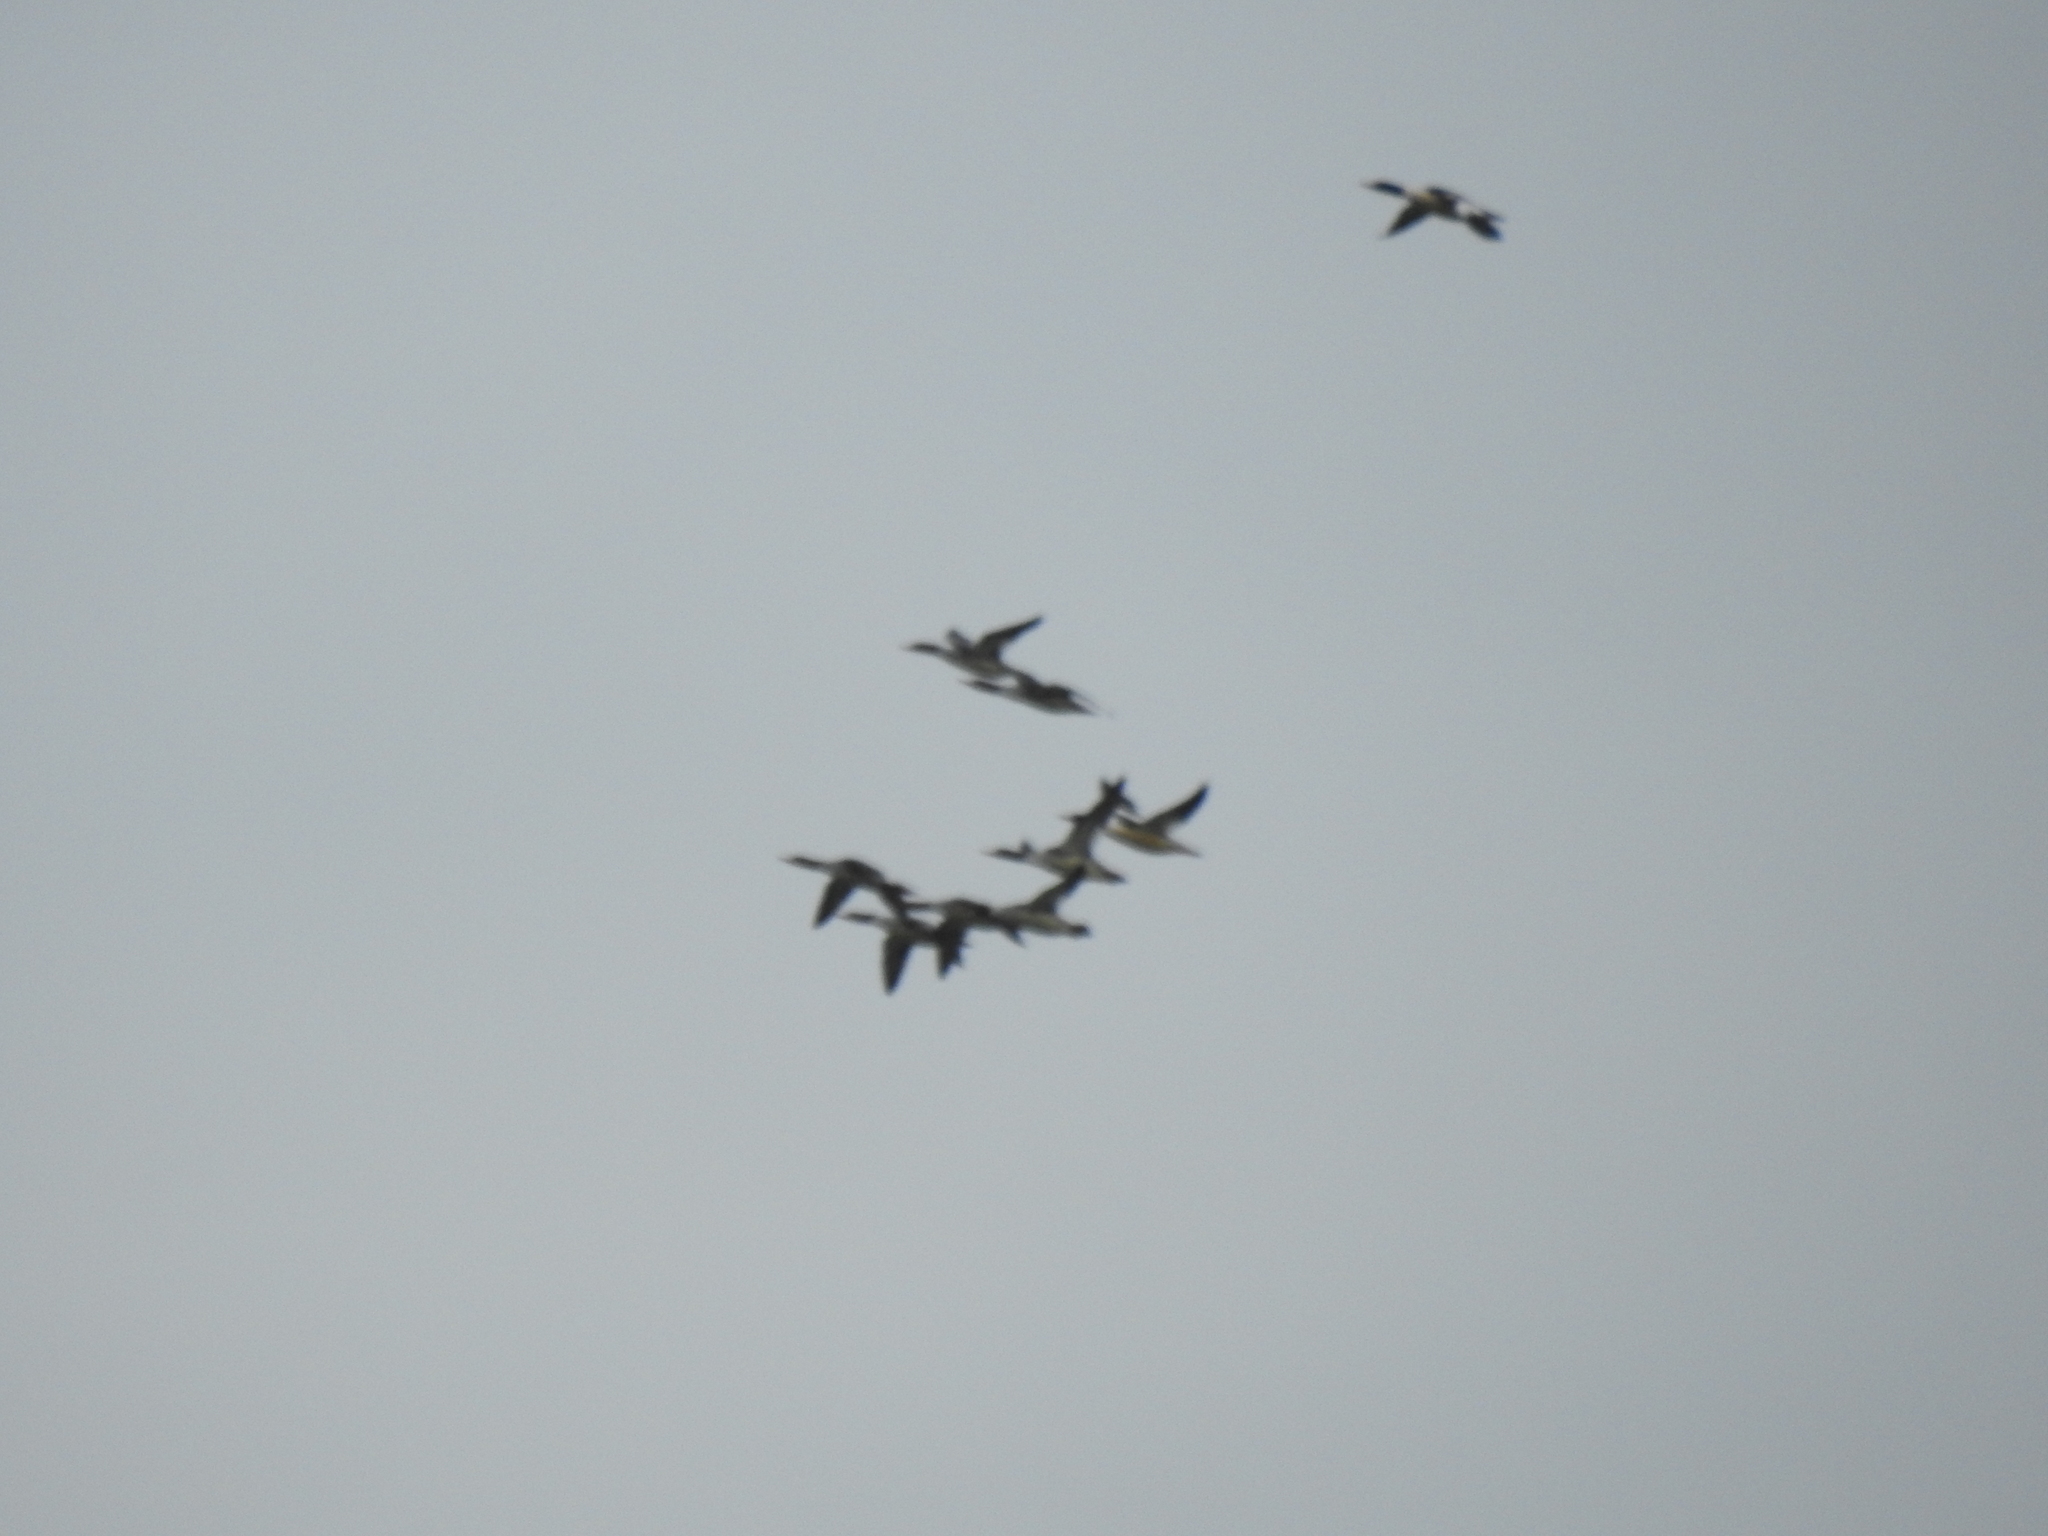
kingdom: Animalia
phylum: Chordata
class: Aves
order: Anseriformes
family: Anatidae
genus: Mergus
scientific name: Mergus serrator
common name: Red-breasted merganser
